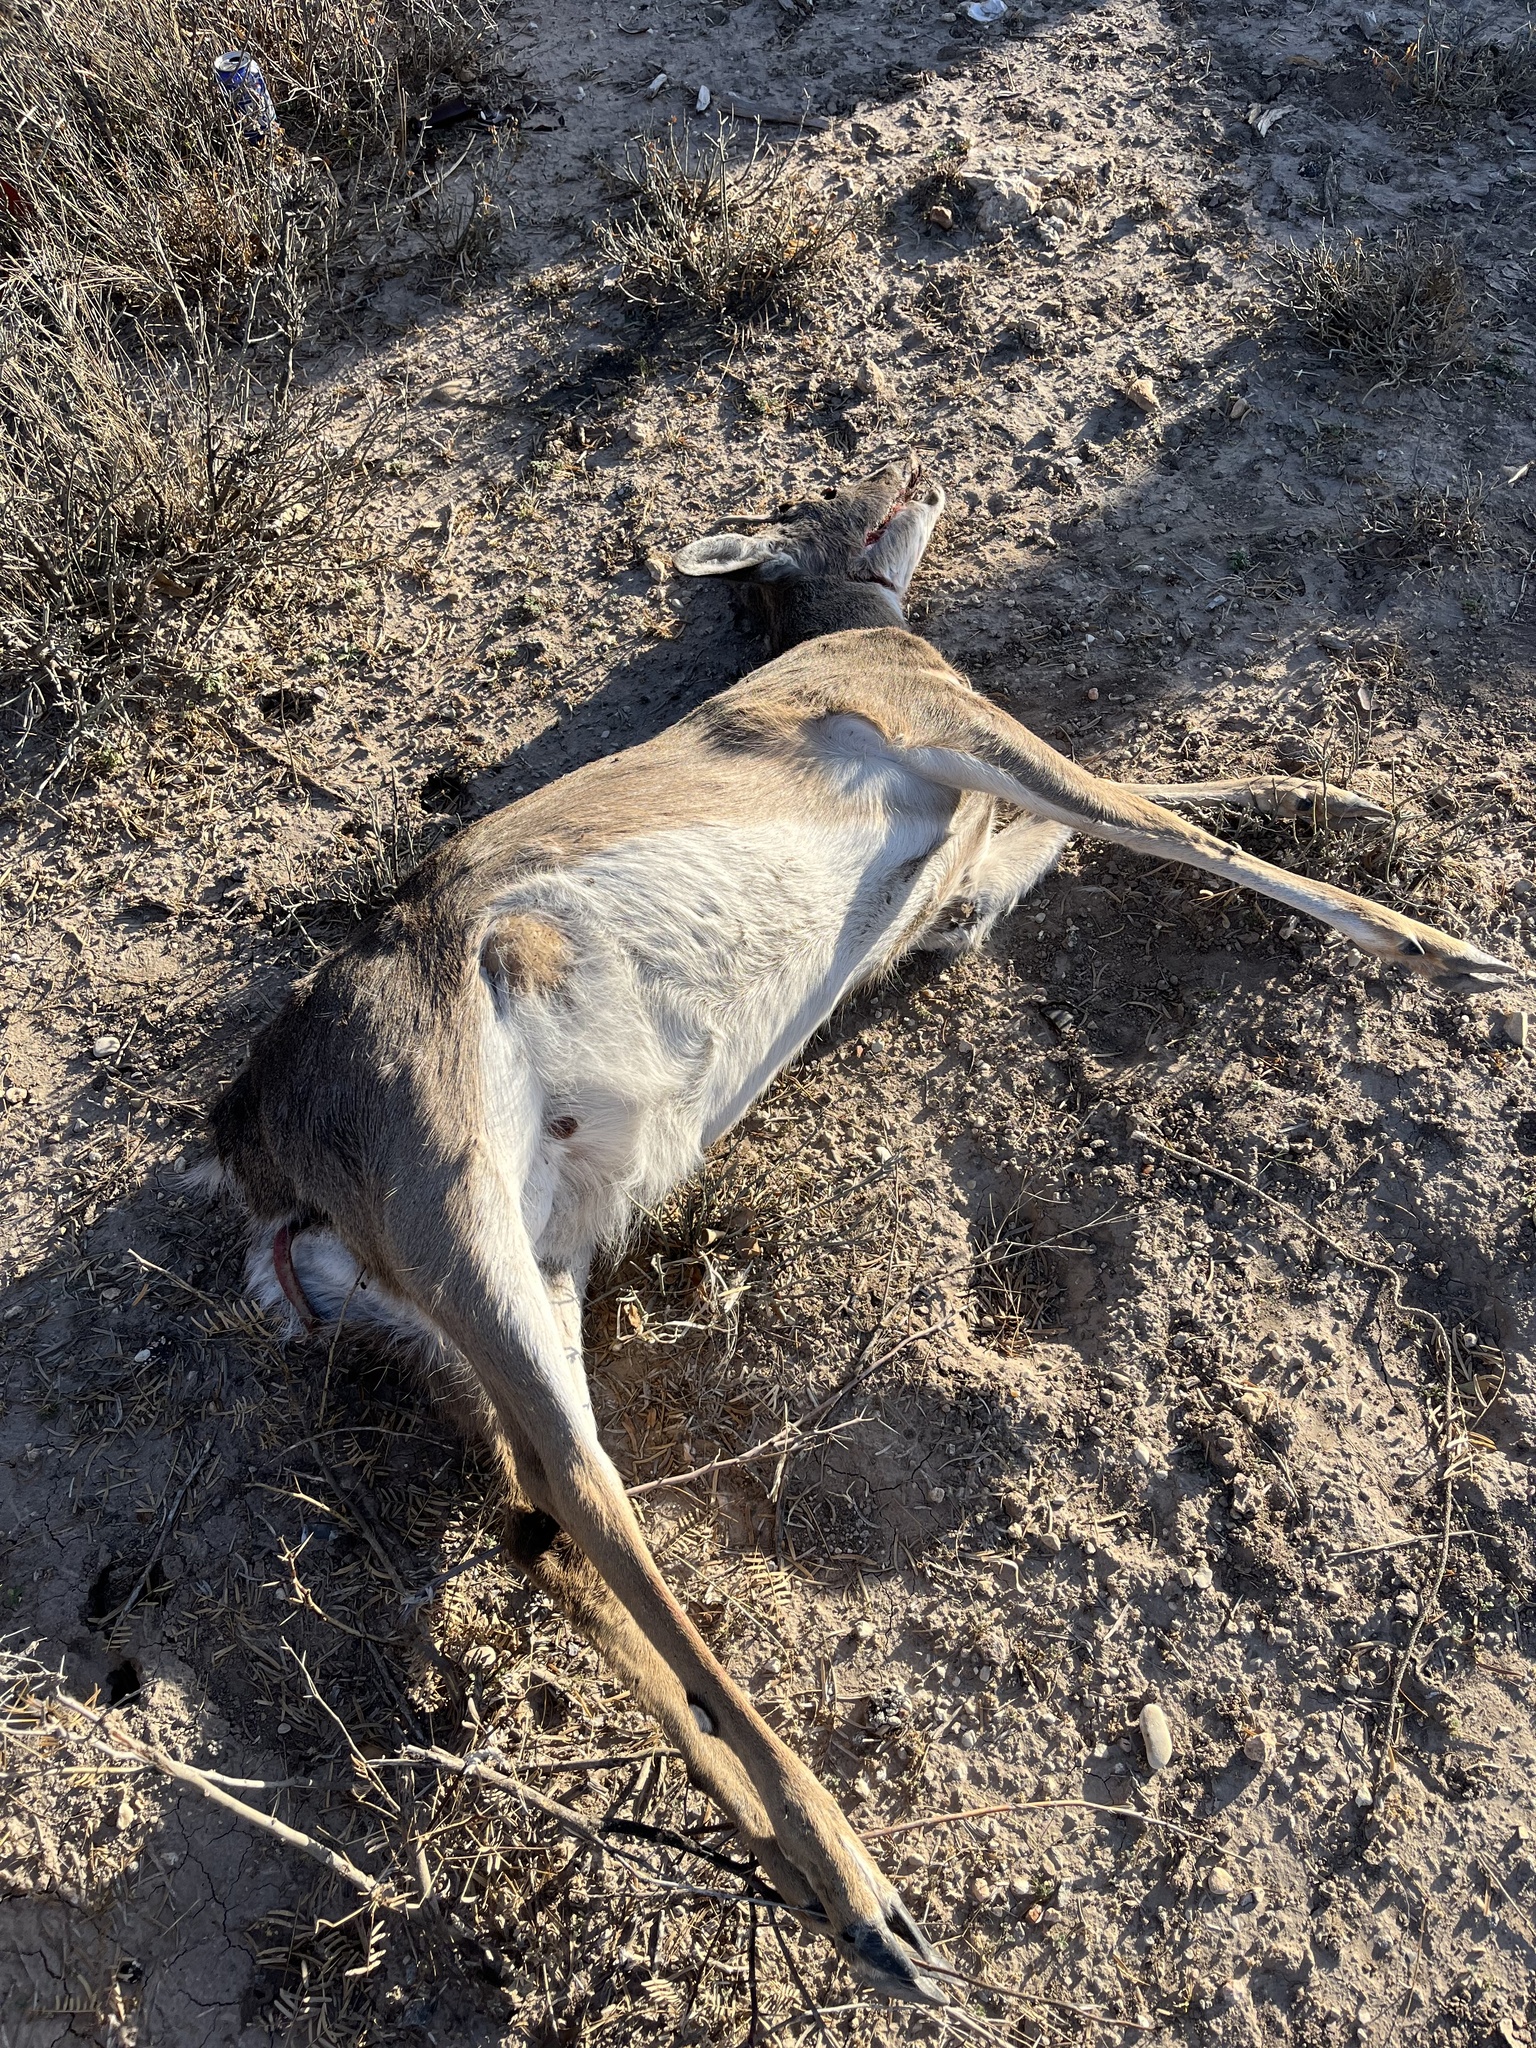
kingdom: Animalia
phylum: Chordata
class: Mammalia
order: Artiodactyla
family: Cervidae
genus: Odocoileus
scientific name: Odocoileus virginianus
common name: White-tailed deer
